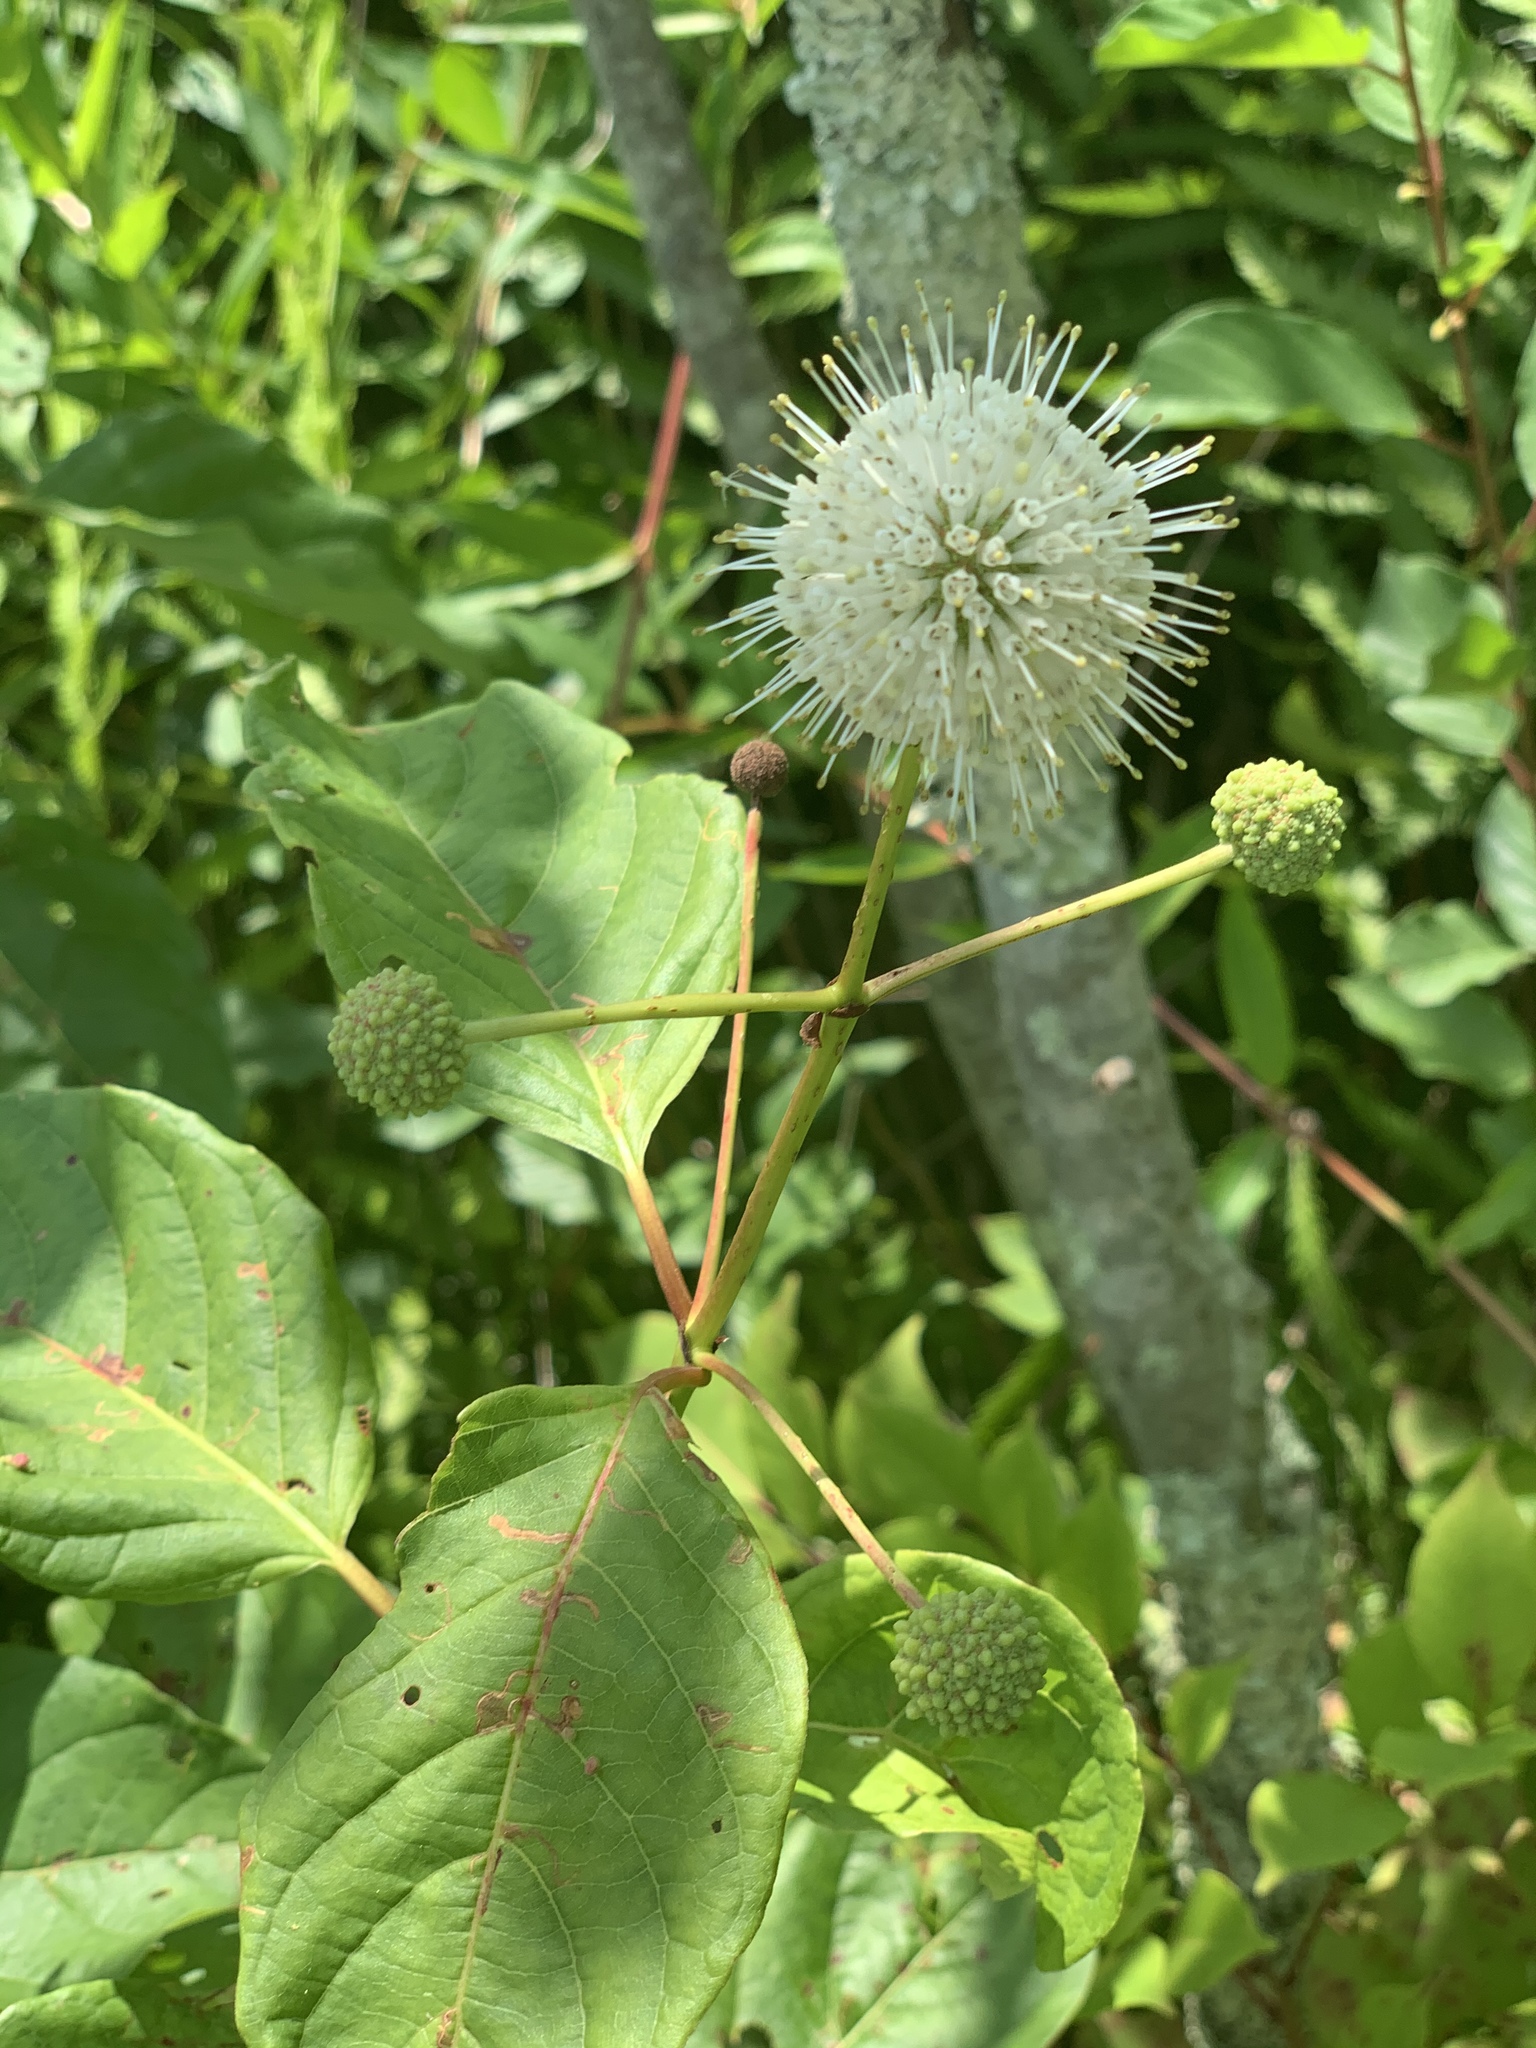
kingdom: Plantae
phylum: Tracheophyta
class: Magnoliopsida
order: Gentianales
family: Rubiaceae
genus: Cephalanthus
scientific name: Cephalanthus occidentalis
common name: Button-willow
